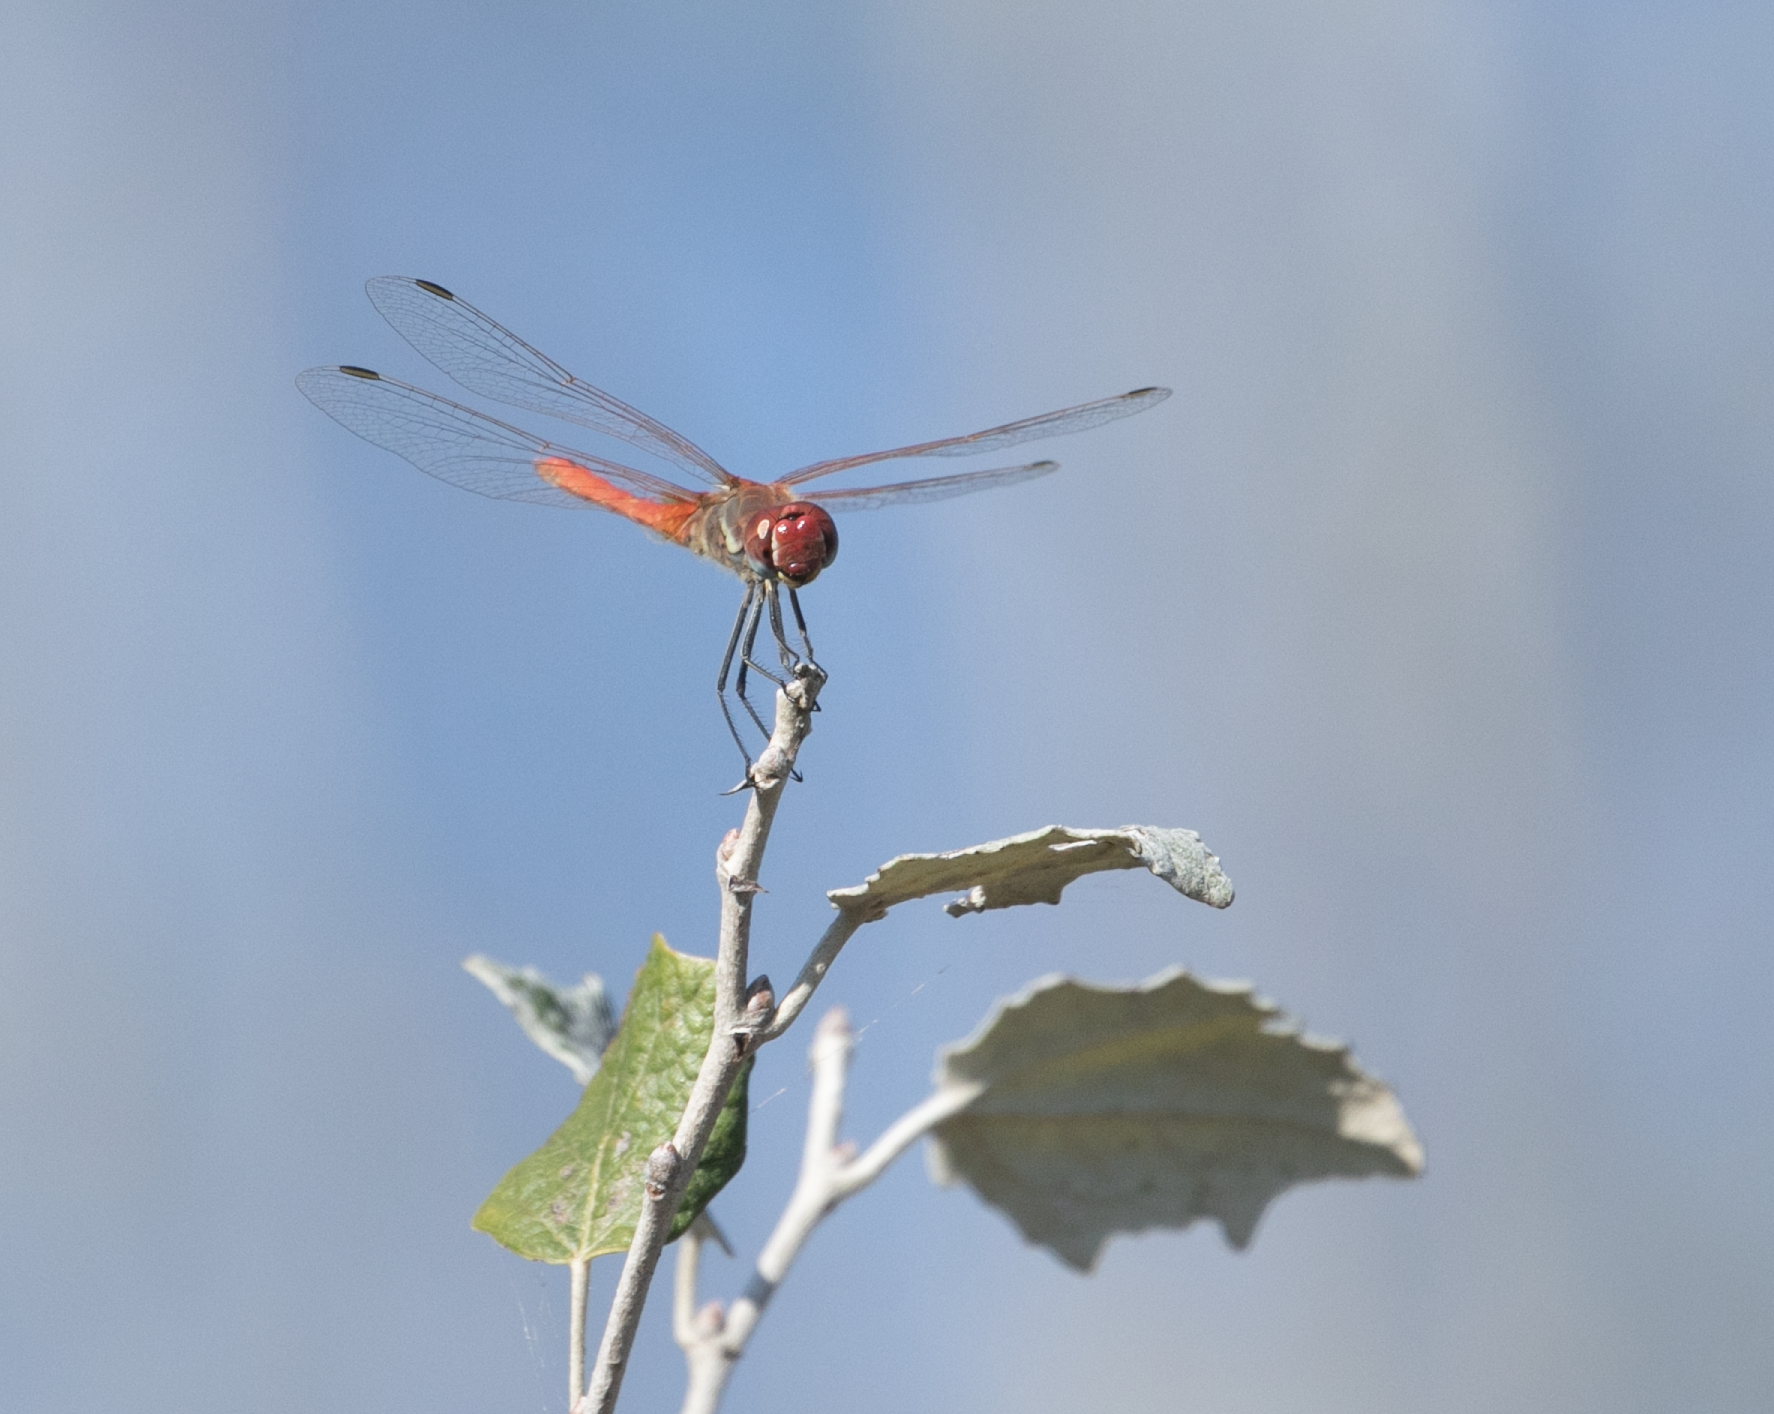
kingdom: Animalia
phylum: Arthropoda
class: Insecta
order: Odonata
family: Libellulidae
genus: Sympetrum
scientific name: Sympetrum fonscolombii
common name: Red-veined darter
